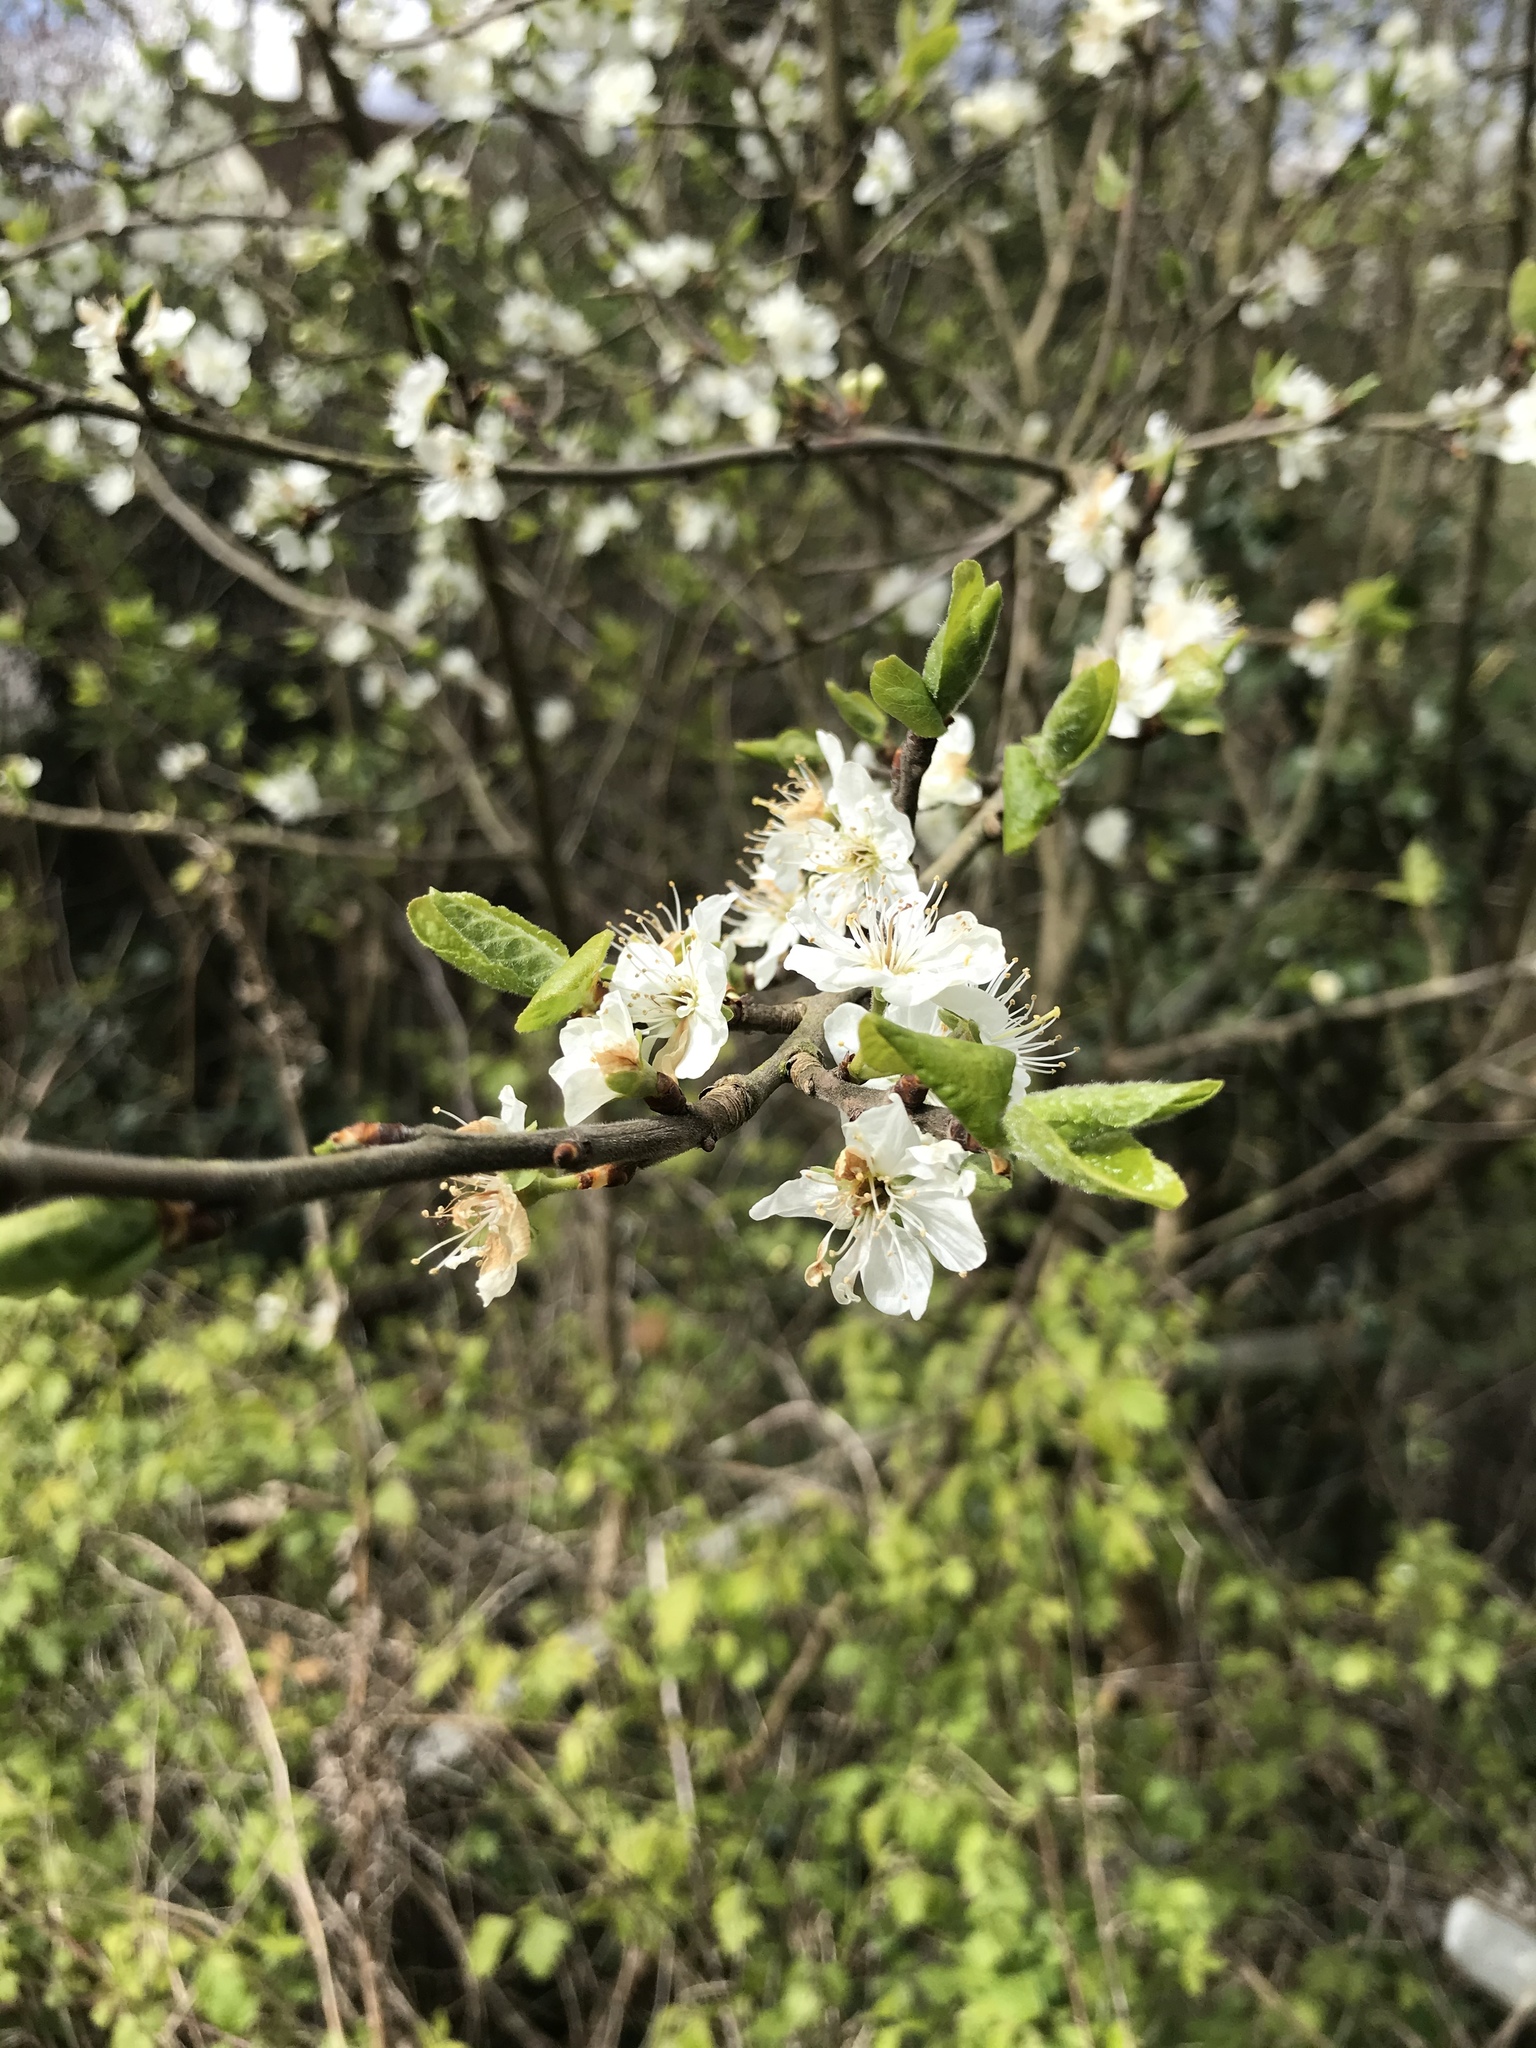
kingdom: Plantae
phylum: Tracheophyta
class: Magnoliopsida
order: Rosales
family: Rosaceae
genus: Prunus
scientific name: Prunus spinosa
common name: Blackthorn
